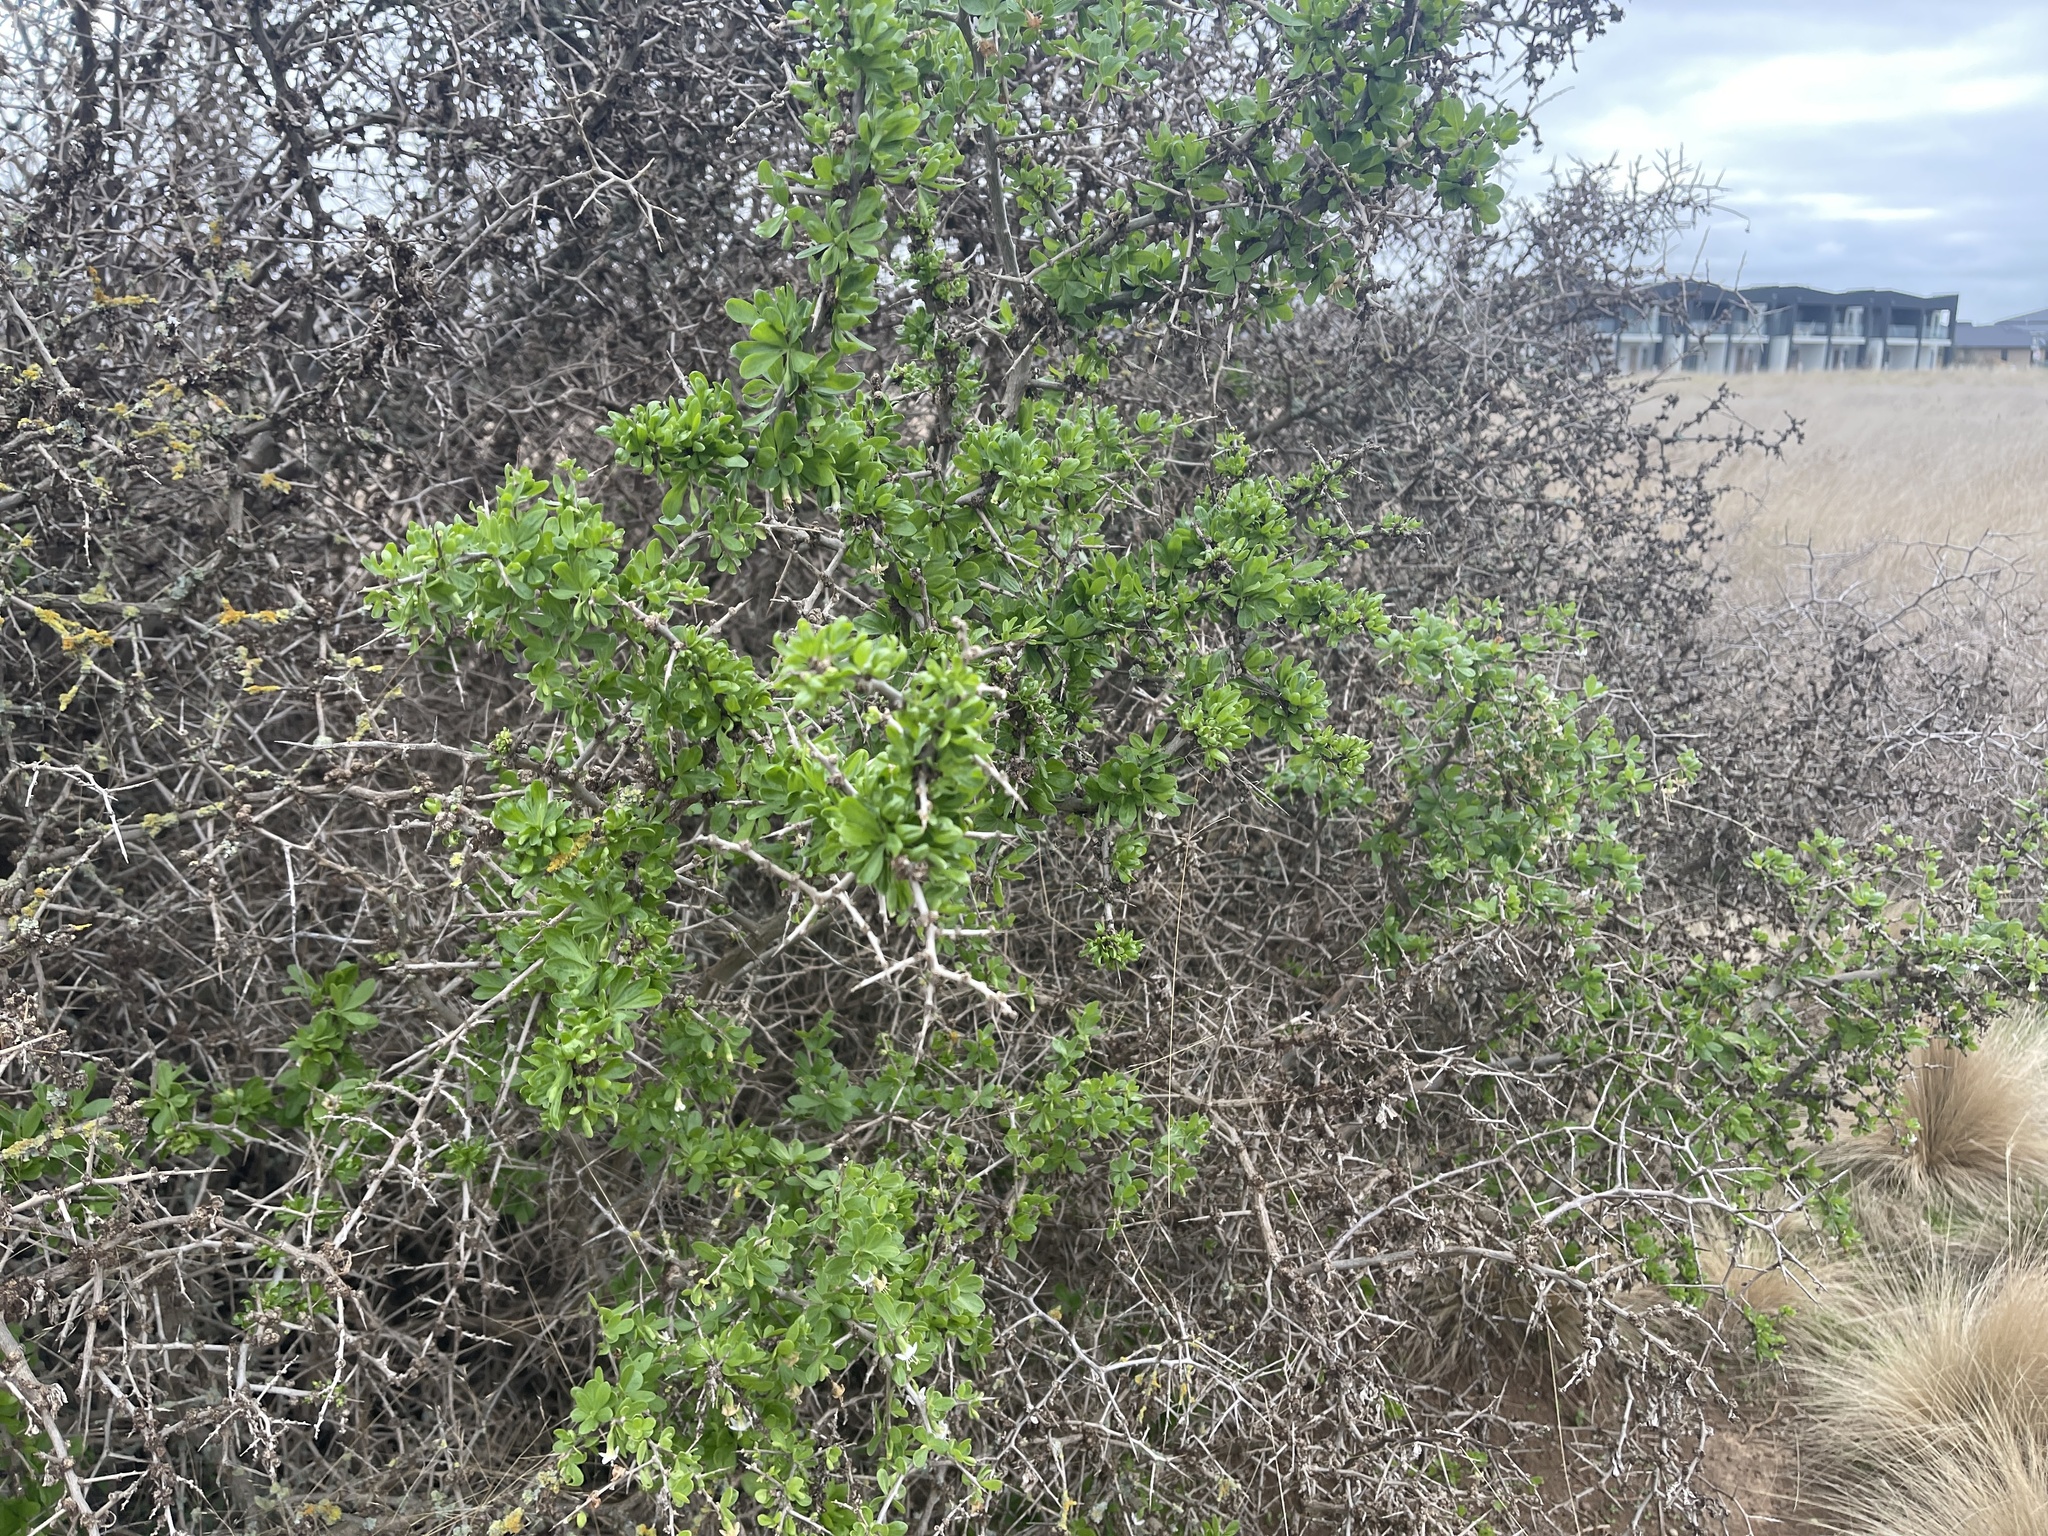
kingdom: Plantae
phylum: Tracheophyta
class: Magnoliopsida
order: Solanales
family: Solanaceae
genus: Lycium
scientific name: Lycium ferocissimum
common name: African boxthorn
